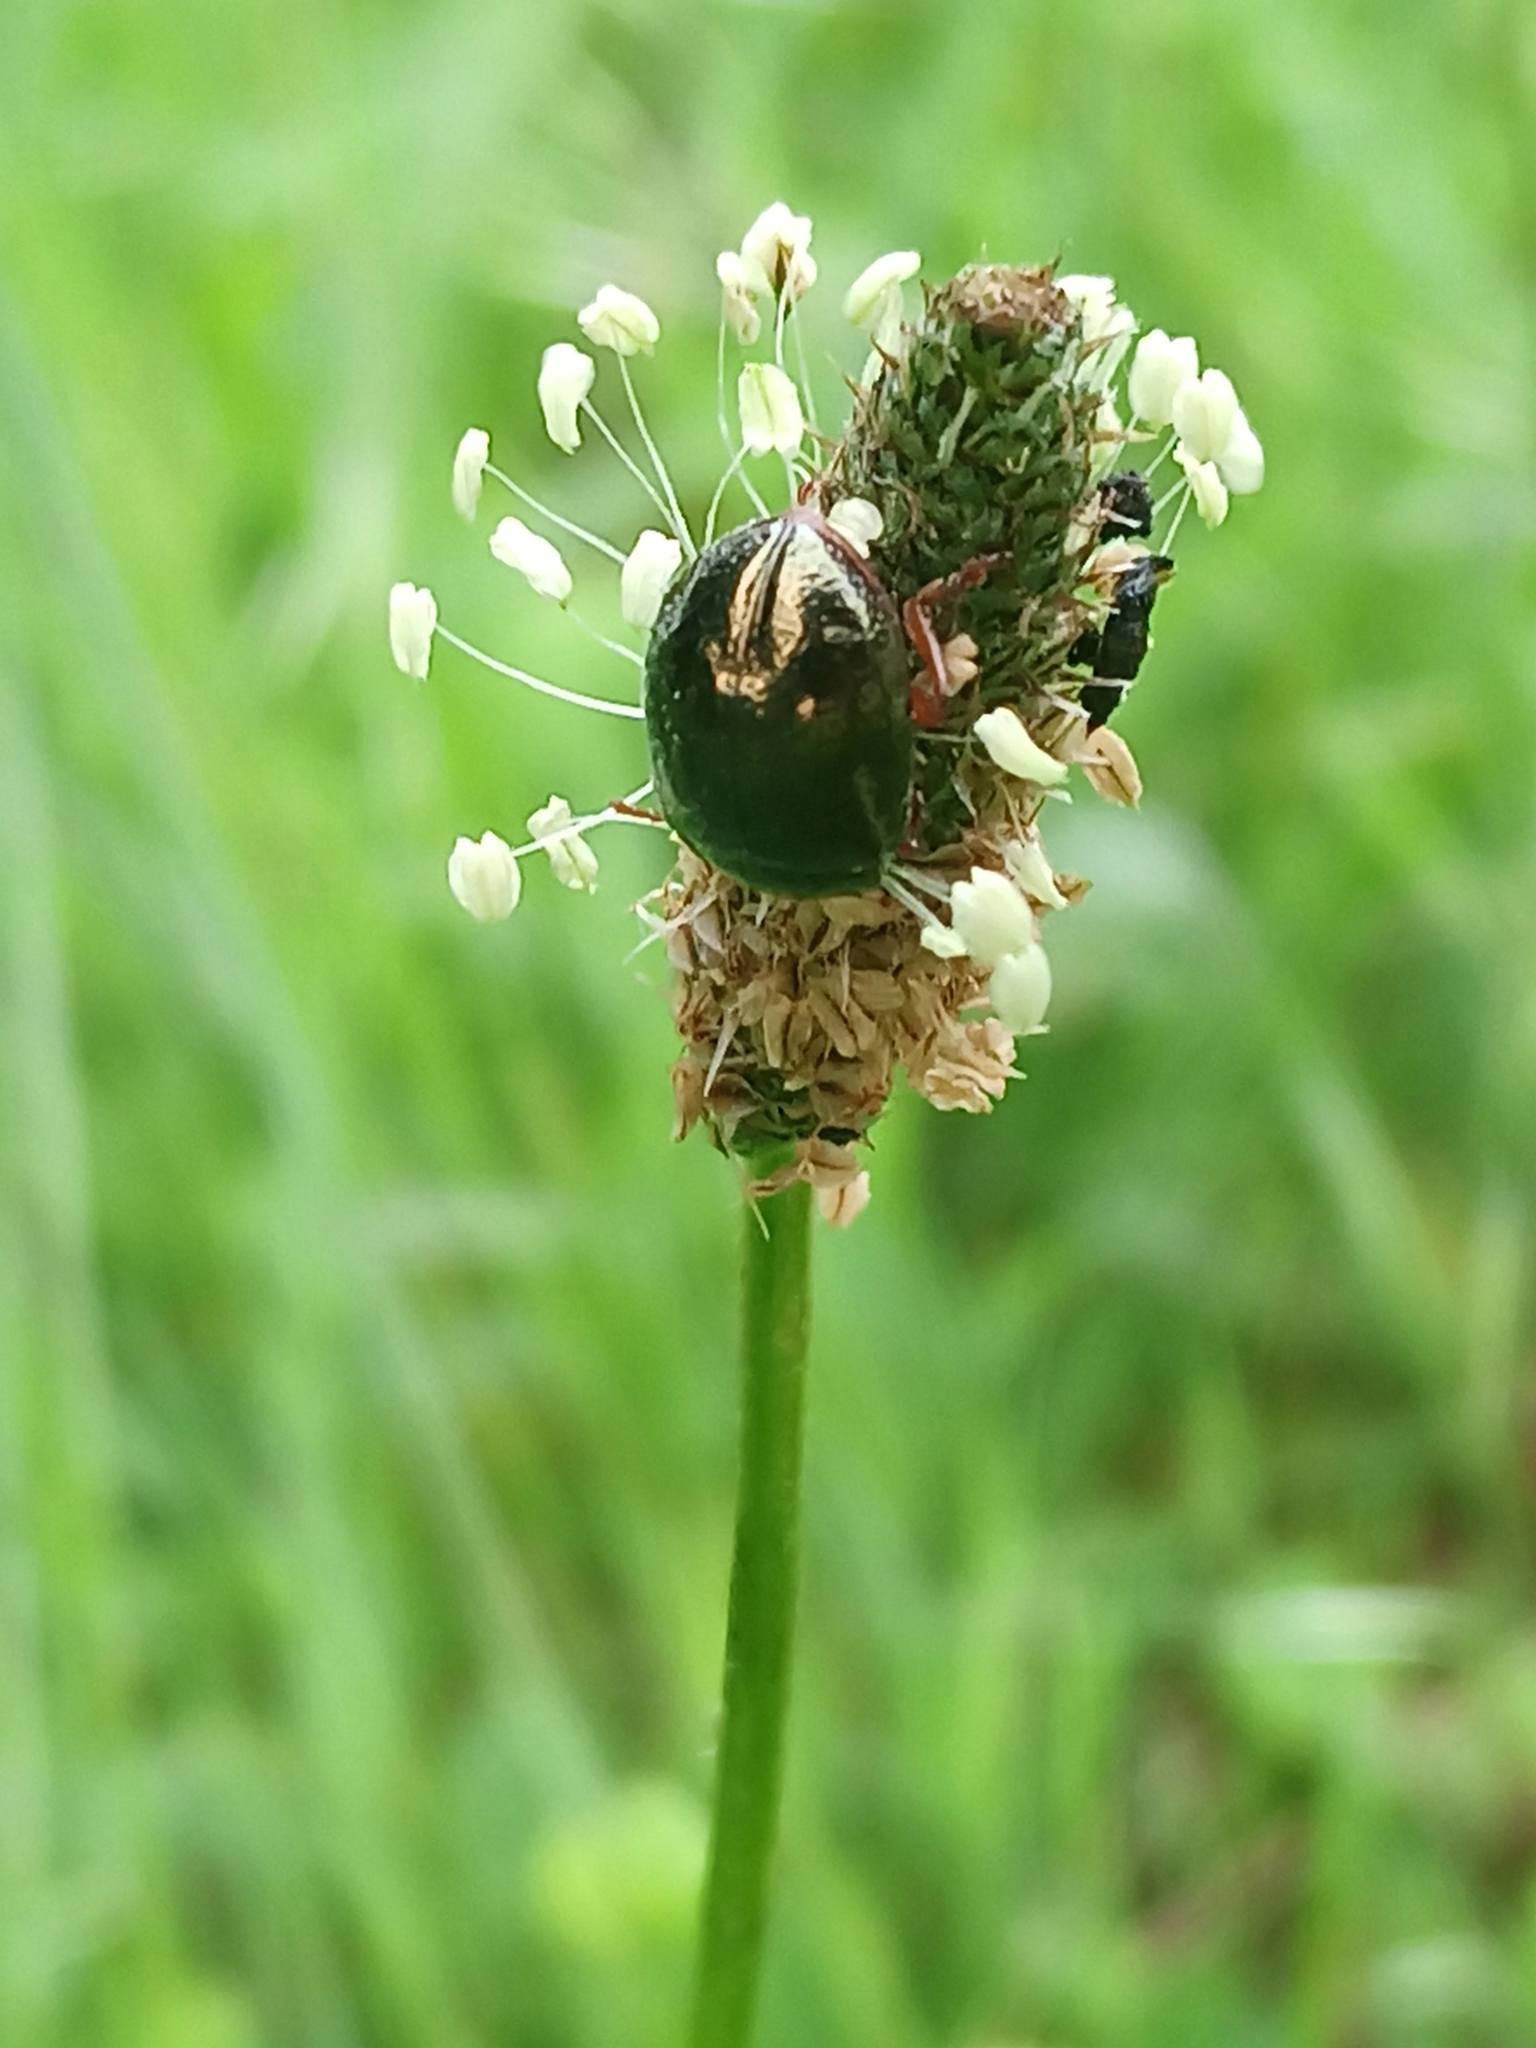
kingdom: Animalia
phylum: Arthropoda
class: Insecta
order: Coleoptera
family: Chrysomelidae
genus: Chrysolina
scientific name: Chrysolina bankii
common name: Leaf beetle
